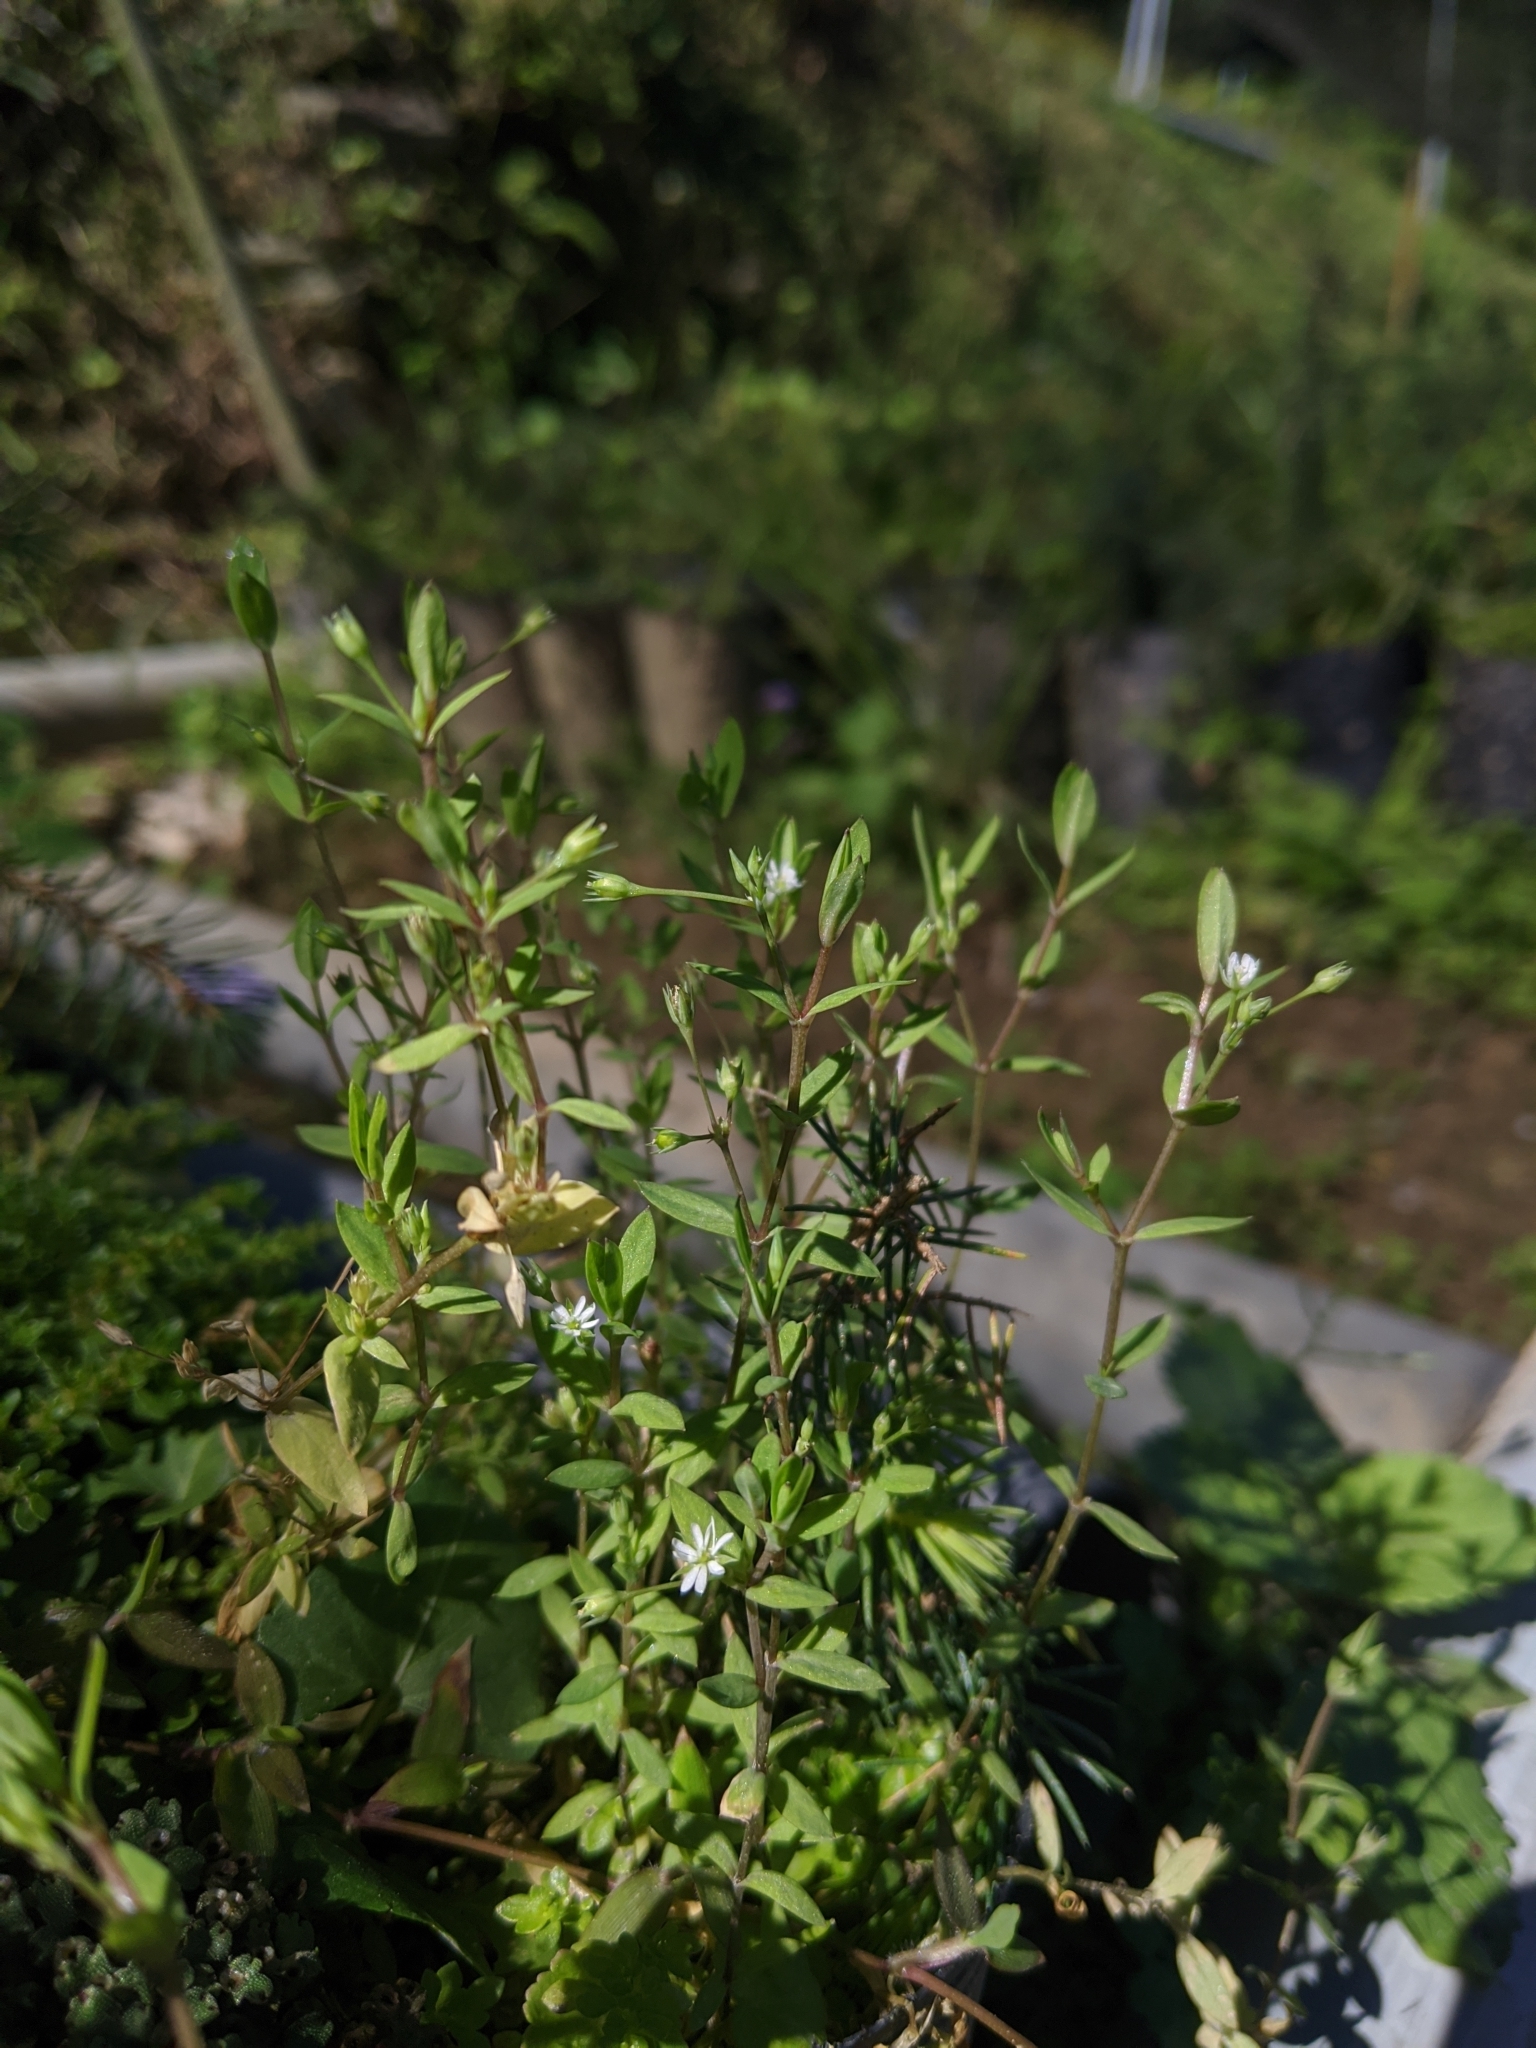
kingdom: Plantae
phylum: Tracheophyta
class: Magnoliopsida
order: Caryophyllales
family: Caryophyllaceae
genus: Stellaria
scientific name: Stellaria alsine
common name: Bog stitchwort
